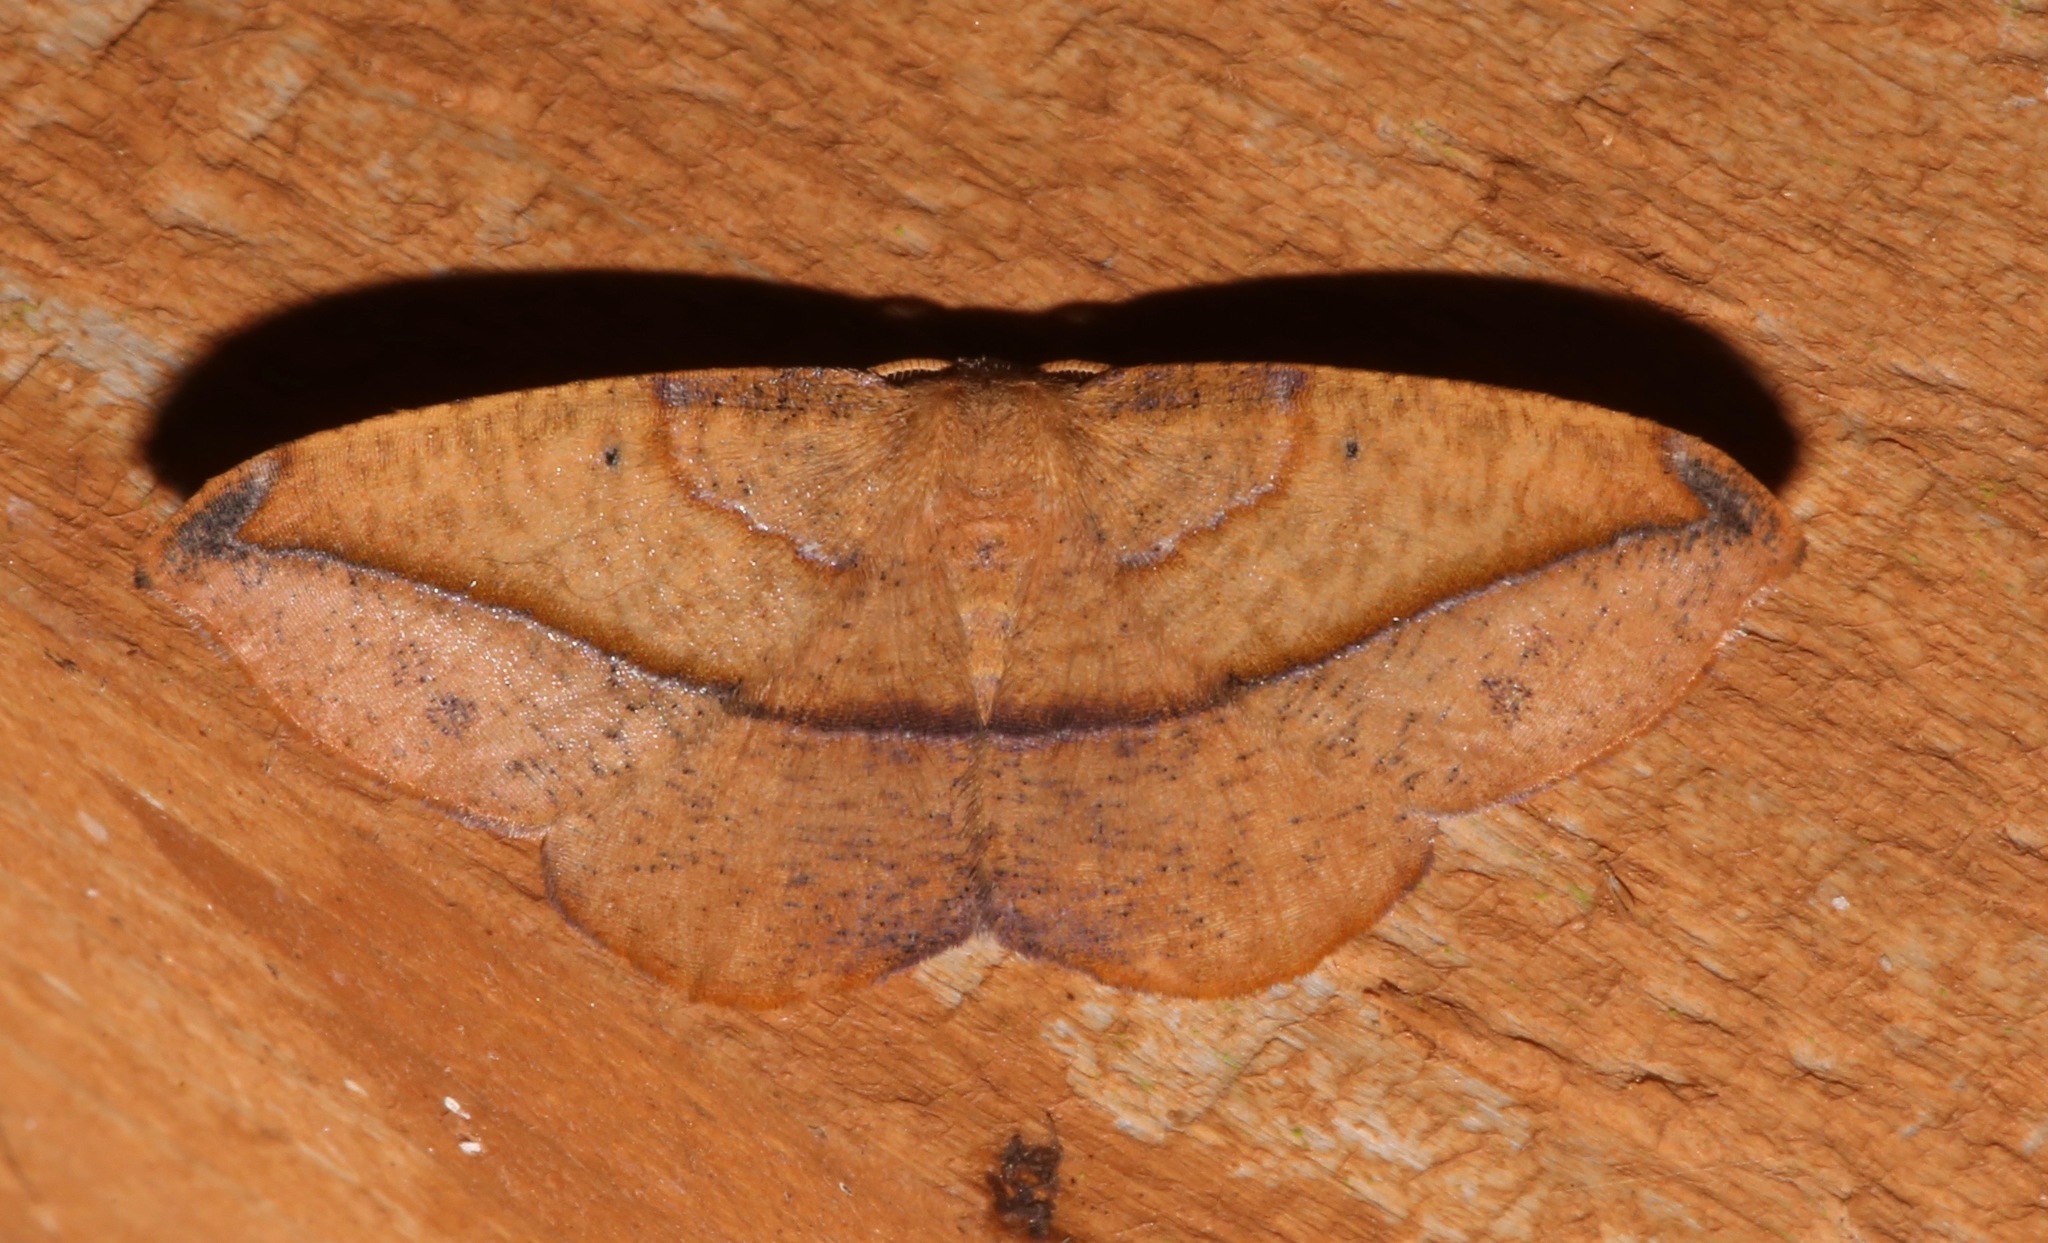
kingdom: Animalia
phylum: Arthropoda
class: Insecta
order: Lepidoptera
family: Geometridae
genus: Patalene
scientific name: Patalene olyzonaria
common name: Juniper geometer moth
